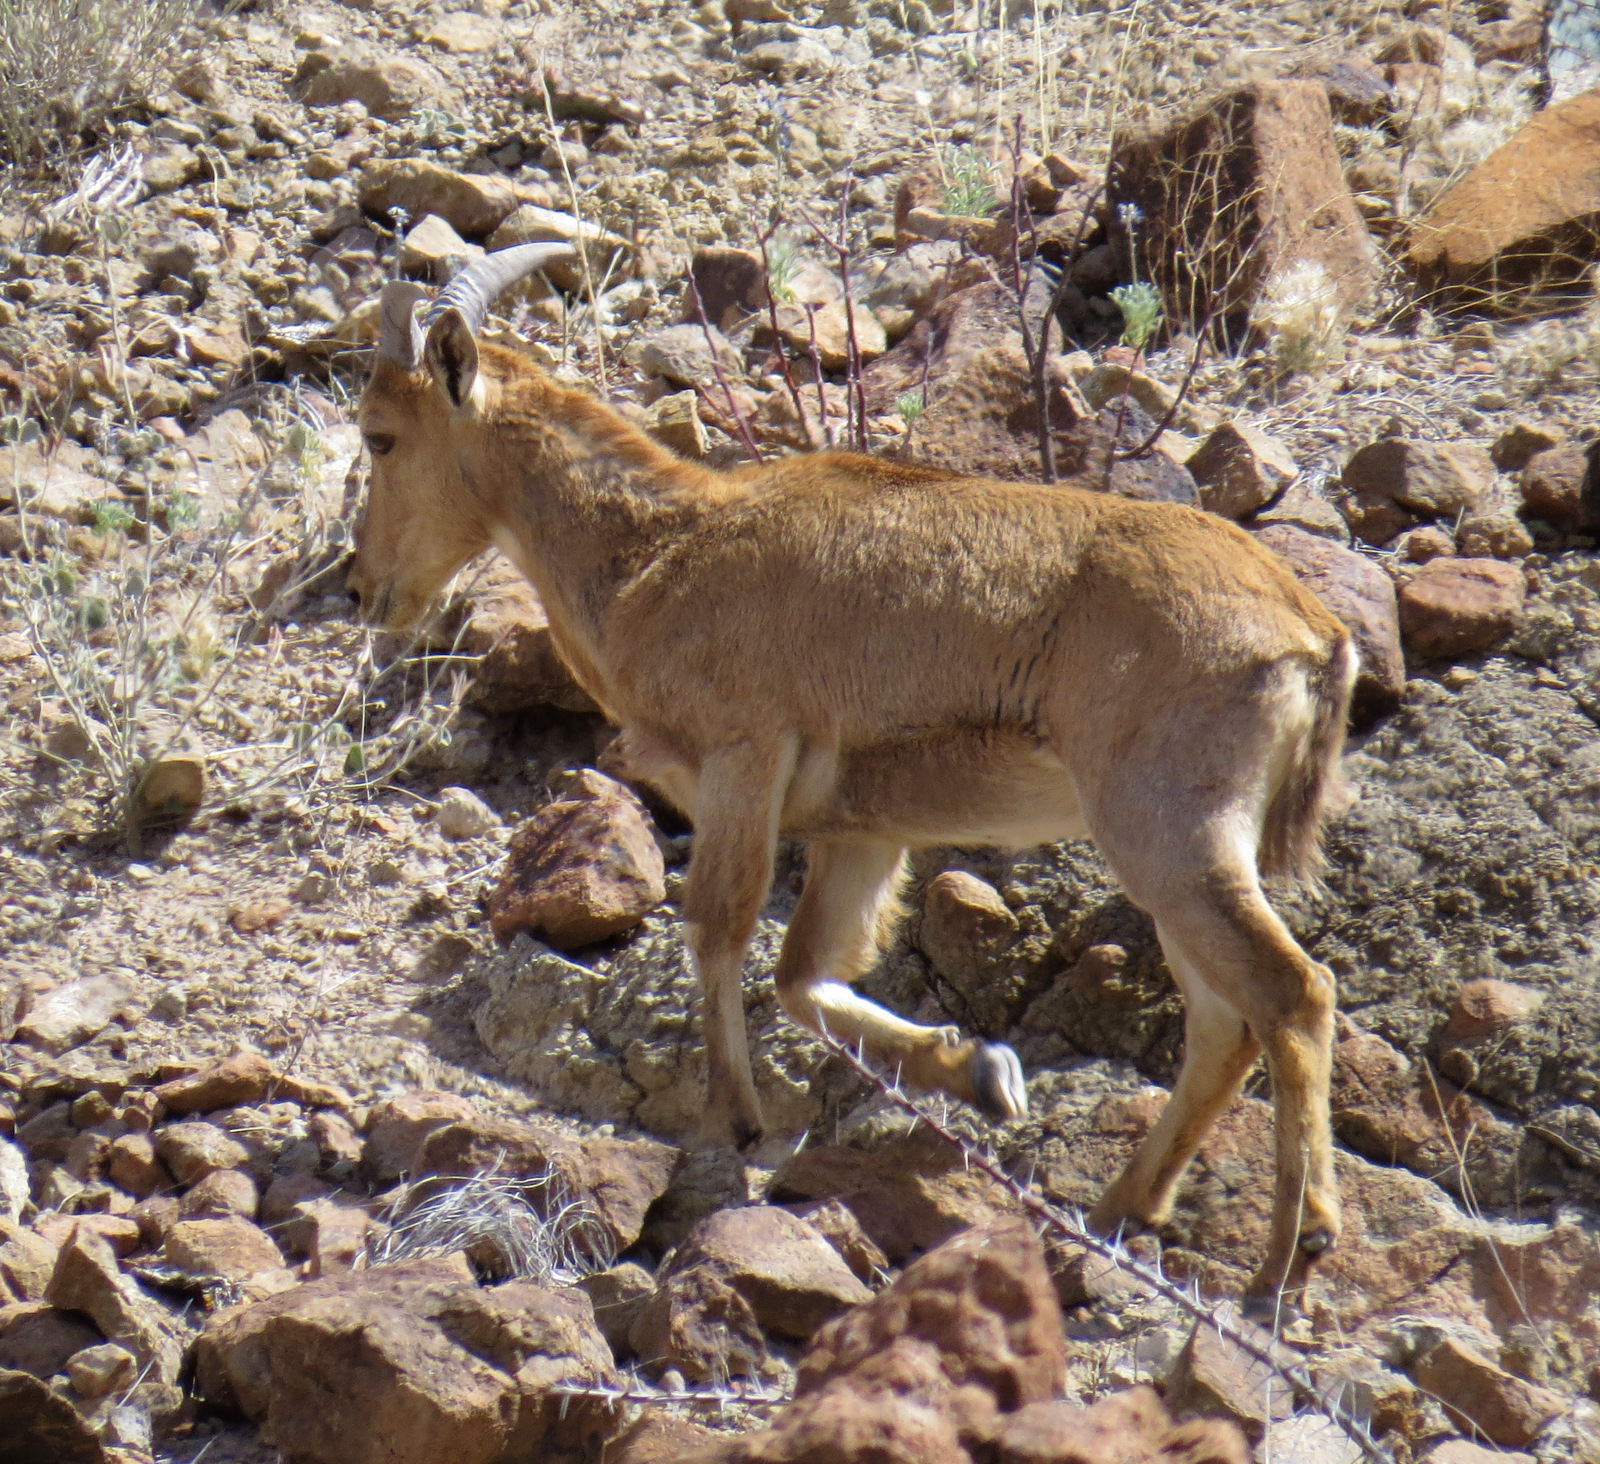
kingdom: Animalia
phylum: Chordata
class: Mammalia
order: Artiodactyla
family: Bovidae
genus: Ammotragus
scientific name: Ammotragus lervia
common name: Barbary sheep
